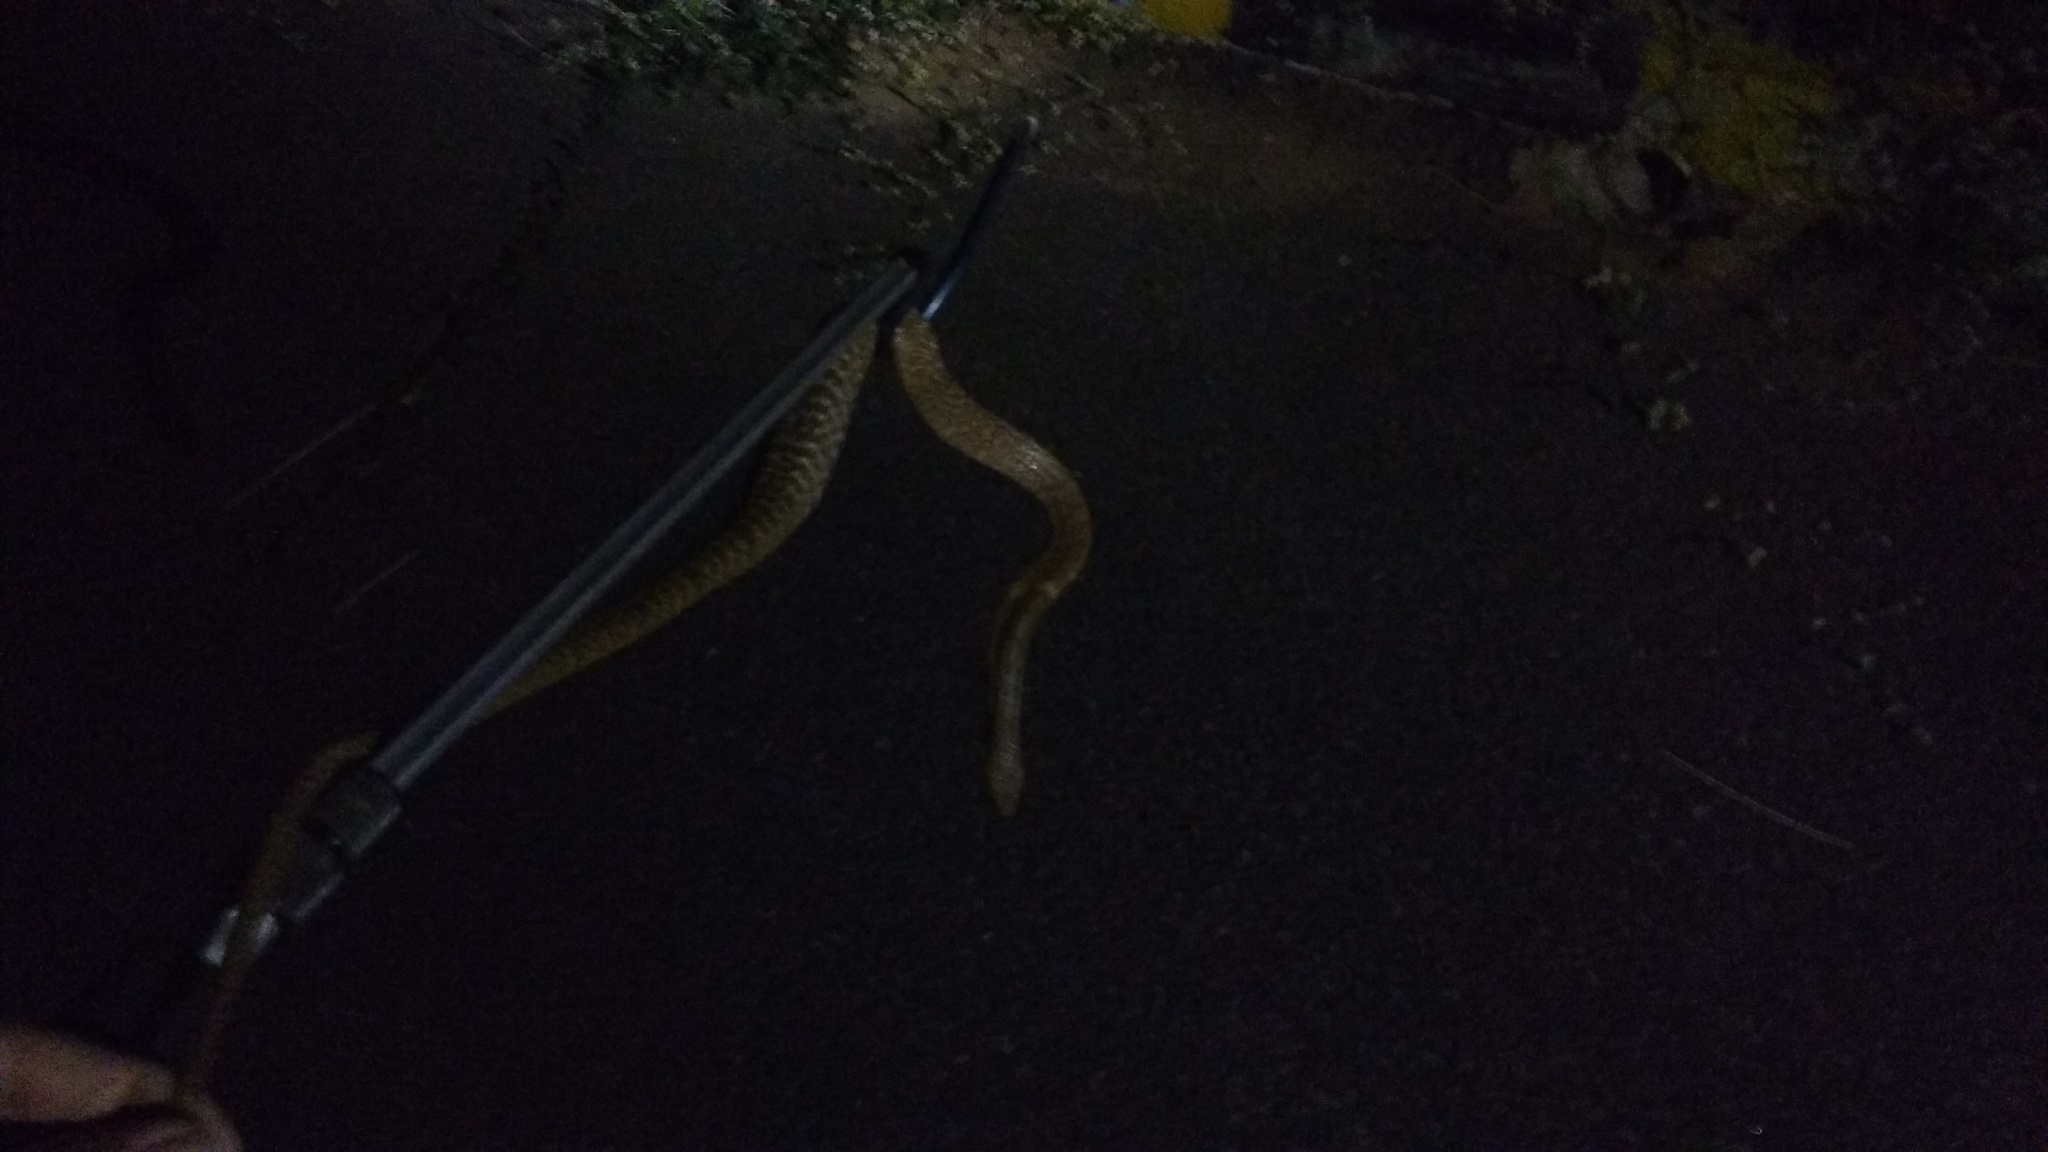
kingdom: Animalia
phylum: Chordata
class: Squamata
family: Elapidae
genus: Naja
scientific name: Naja naja
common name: Indian cobra
